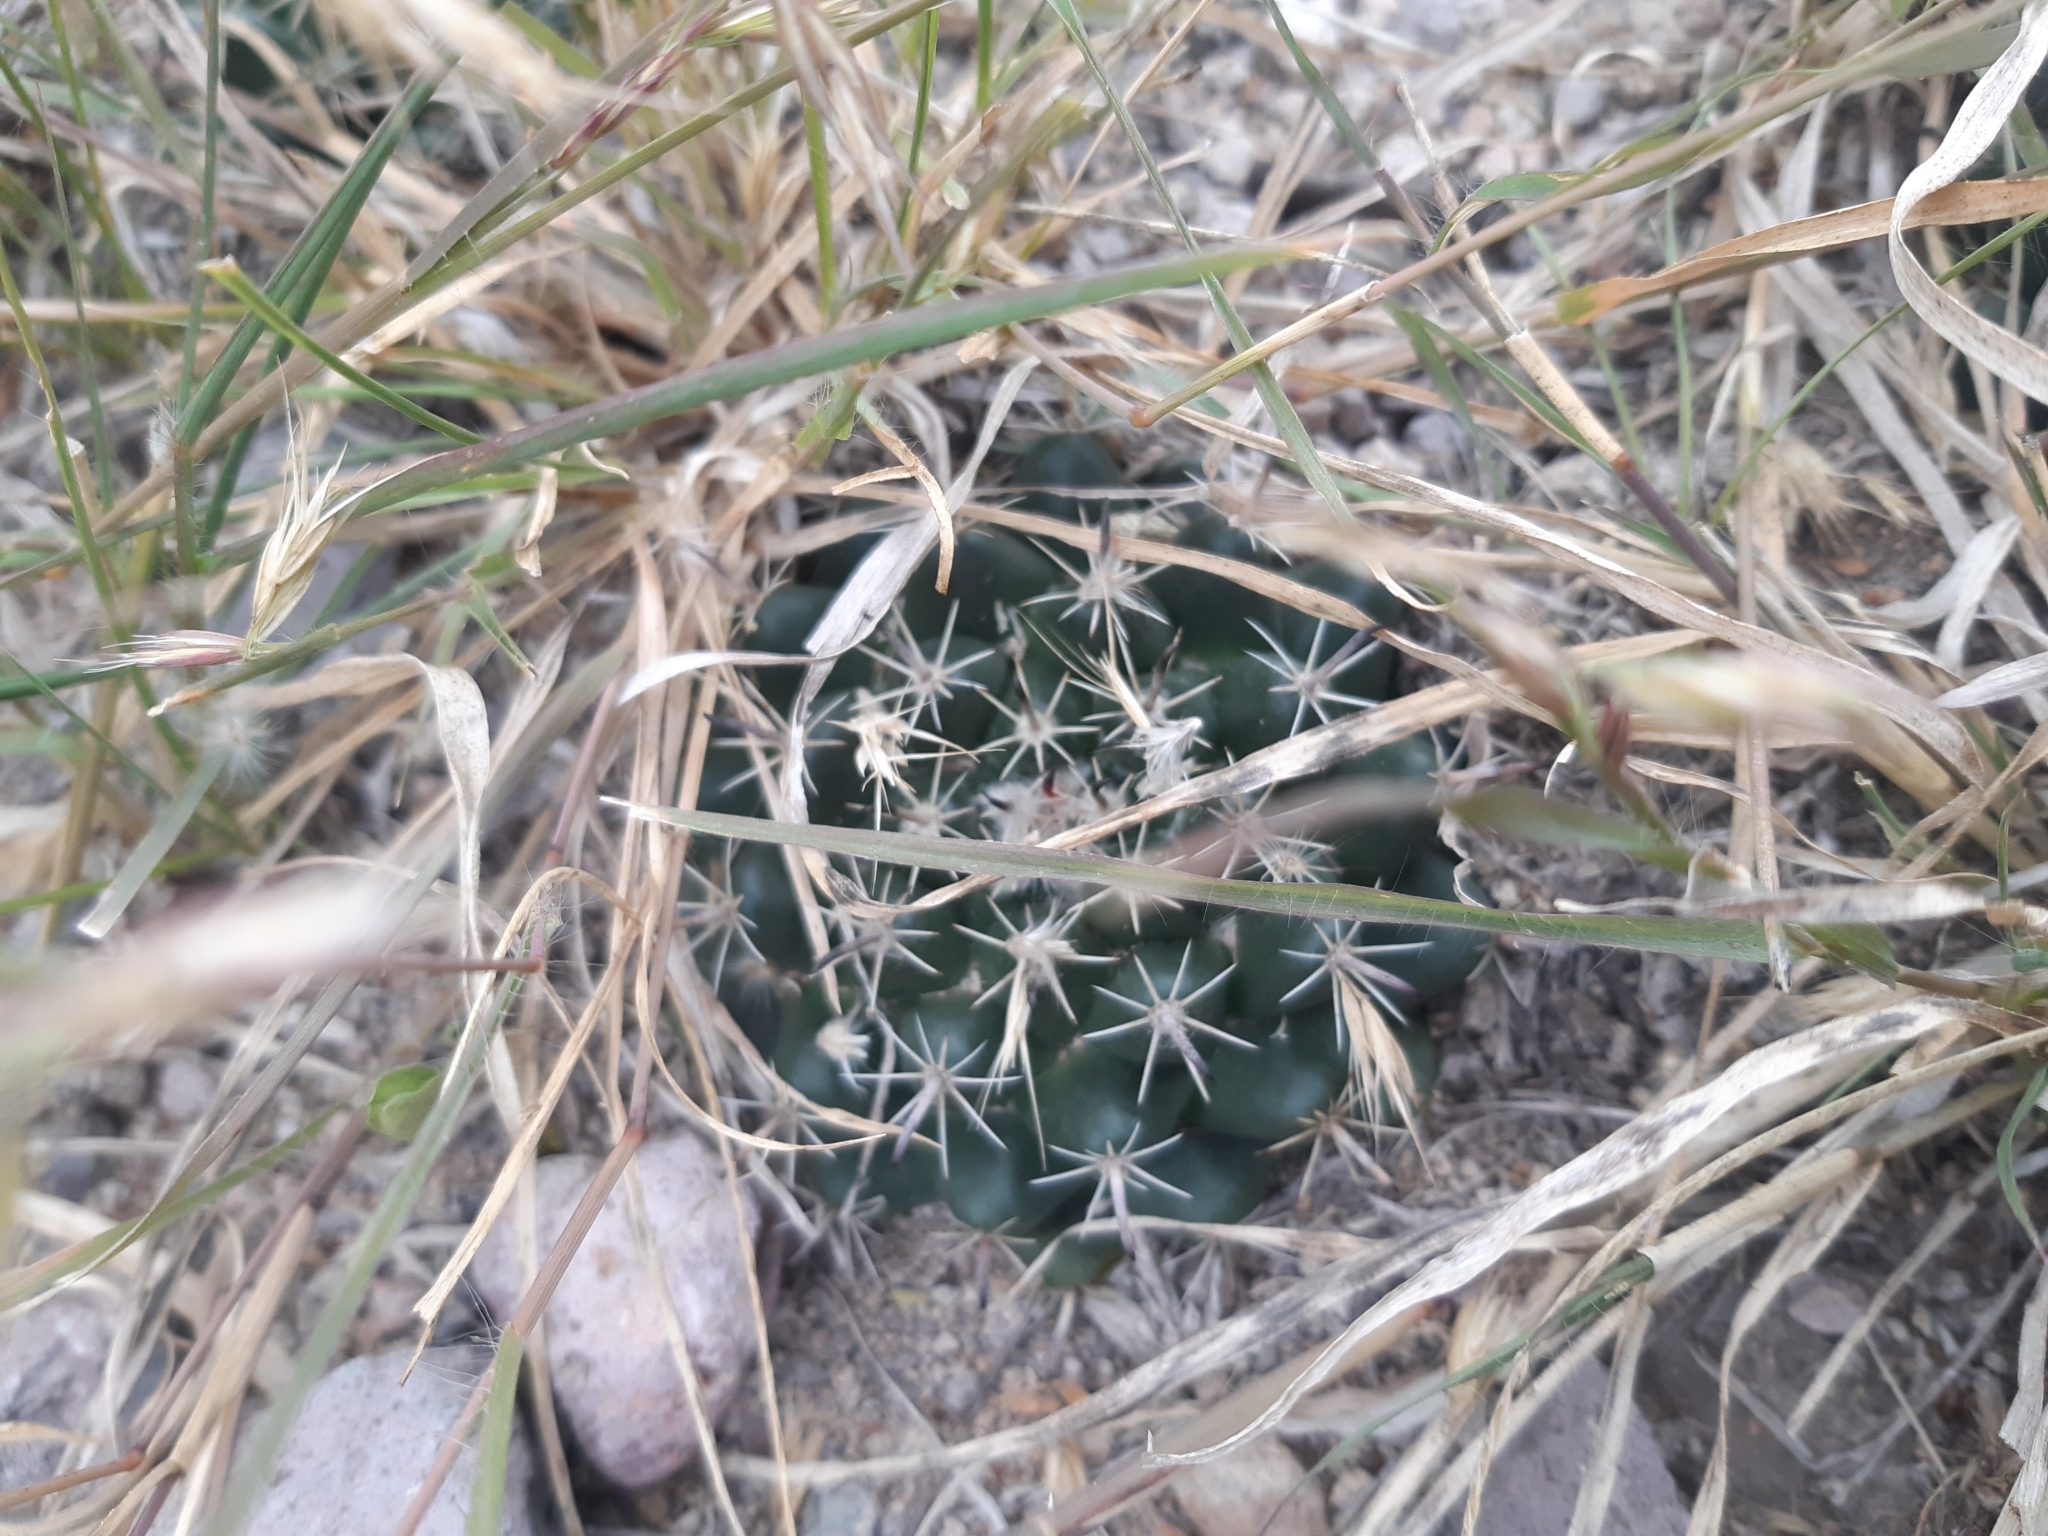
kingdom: Plantae
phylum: Tracheophyta
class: Magnoliopsida
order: Caryophyllales
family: Cactaceae
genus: Mammillaria
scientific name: Mammillaria uncinata
